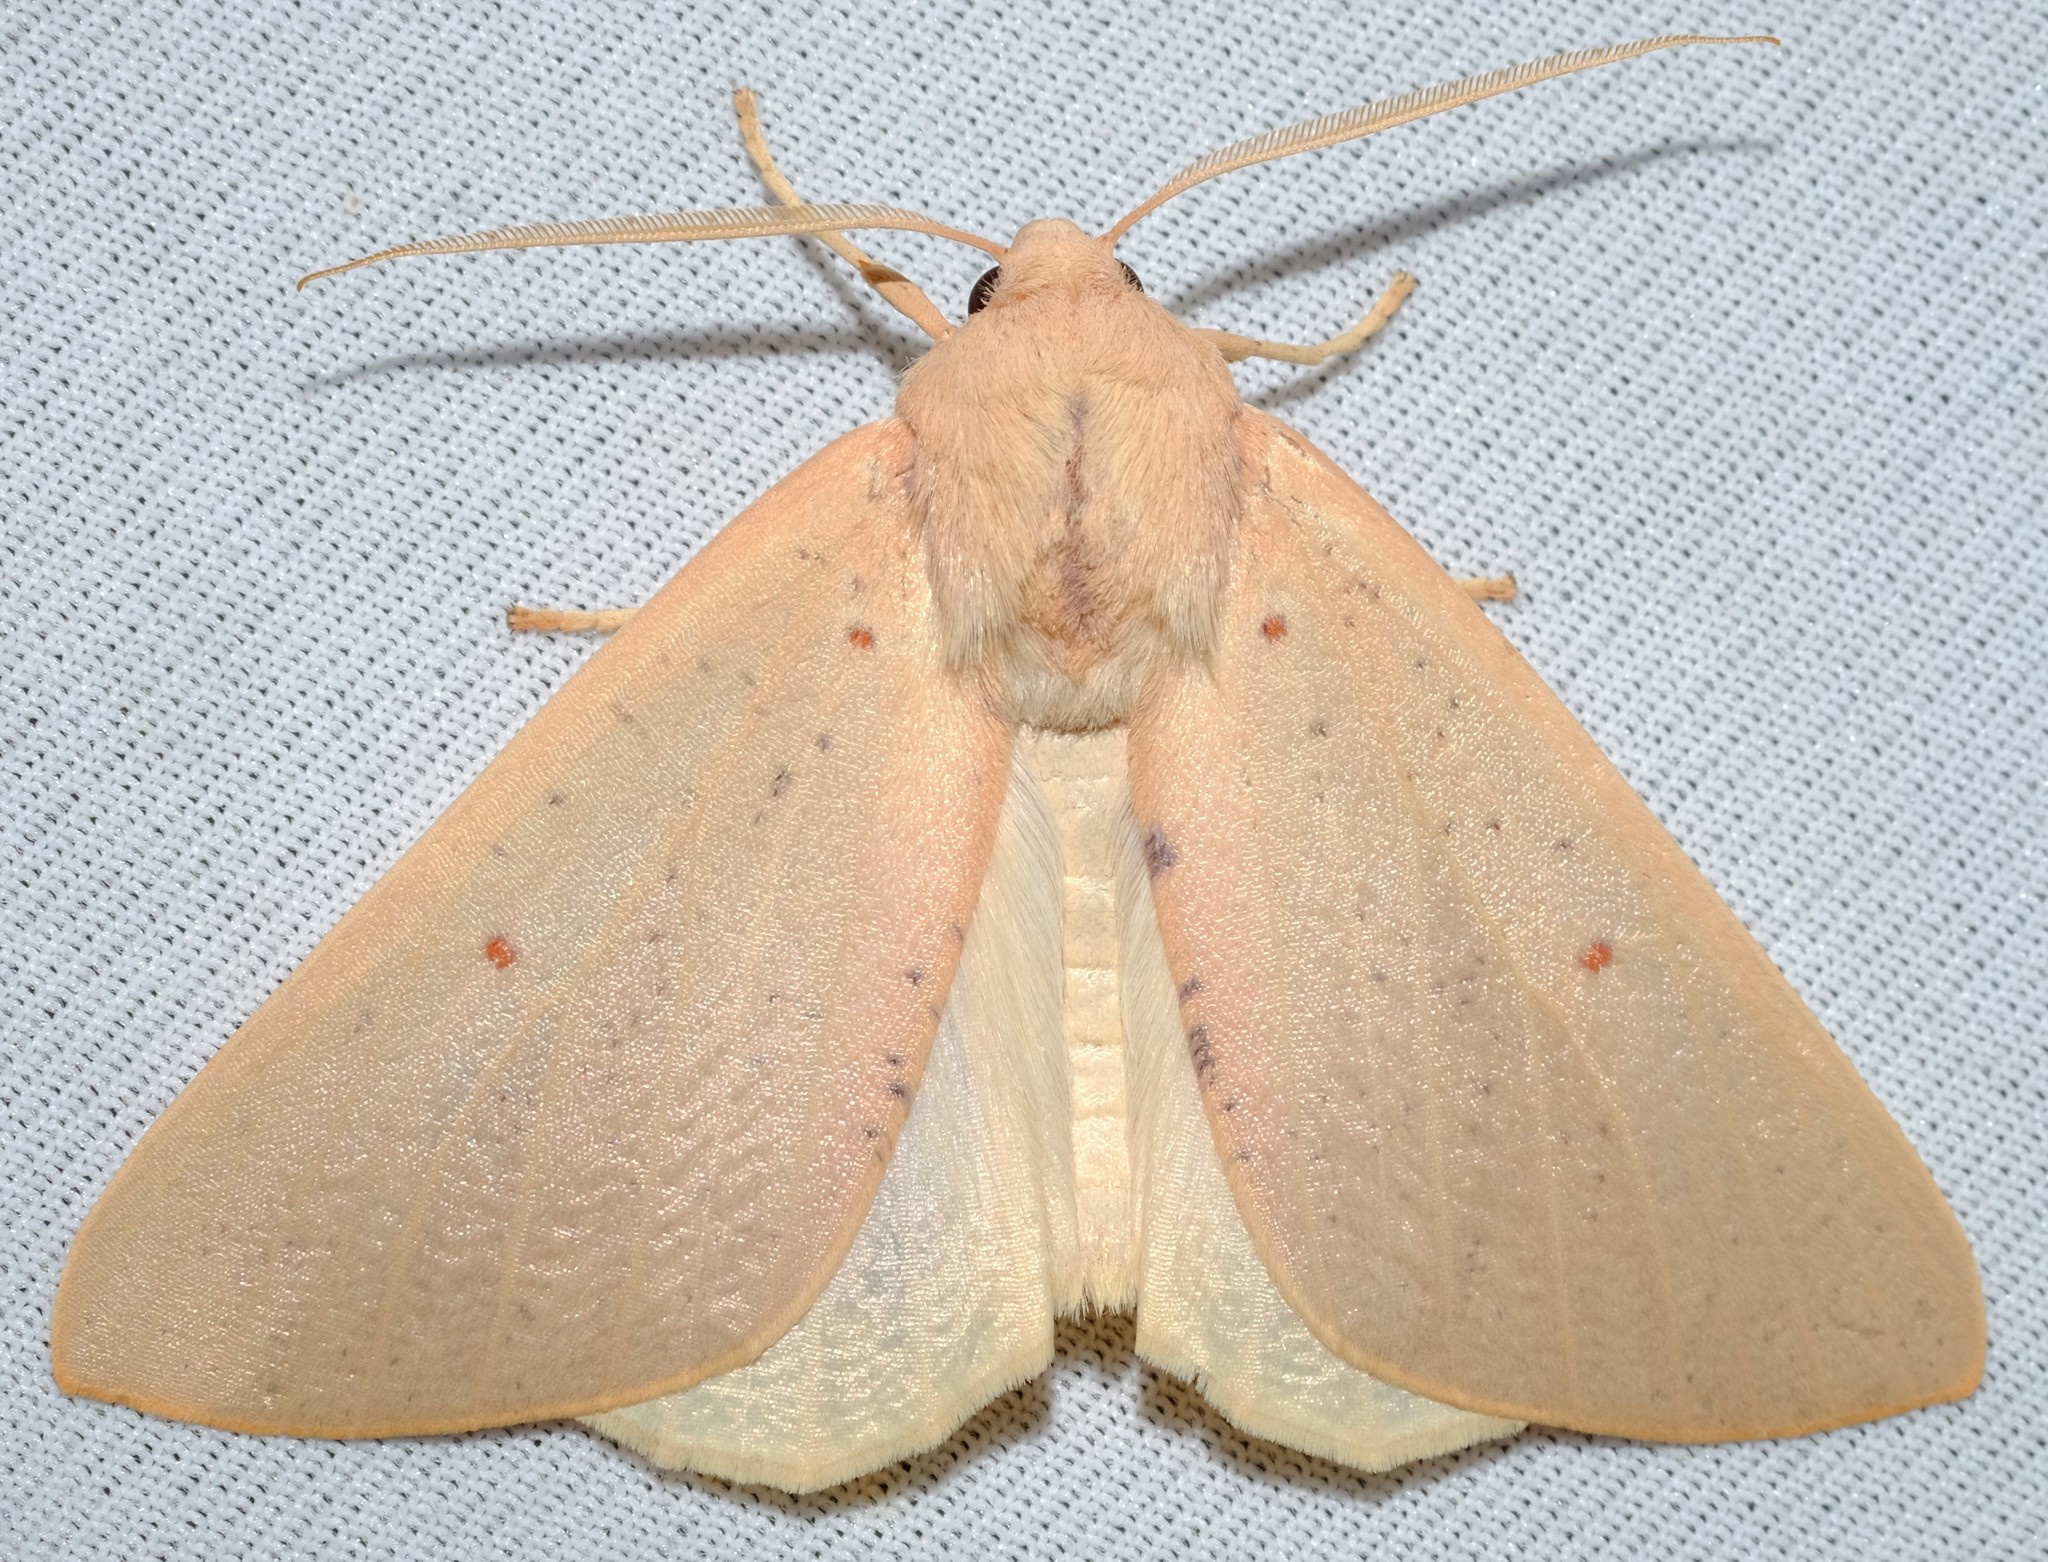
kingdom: Animalia
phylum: Arthropoda
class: Insecta
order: Lepidoptera
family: Geometridae
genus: Plesanemma
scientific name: Plesanemma fucata
